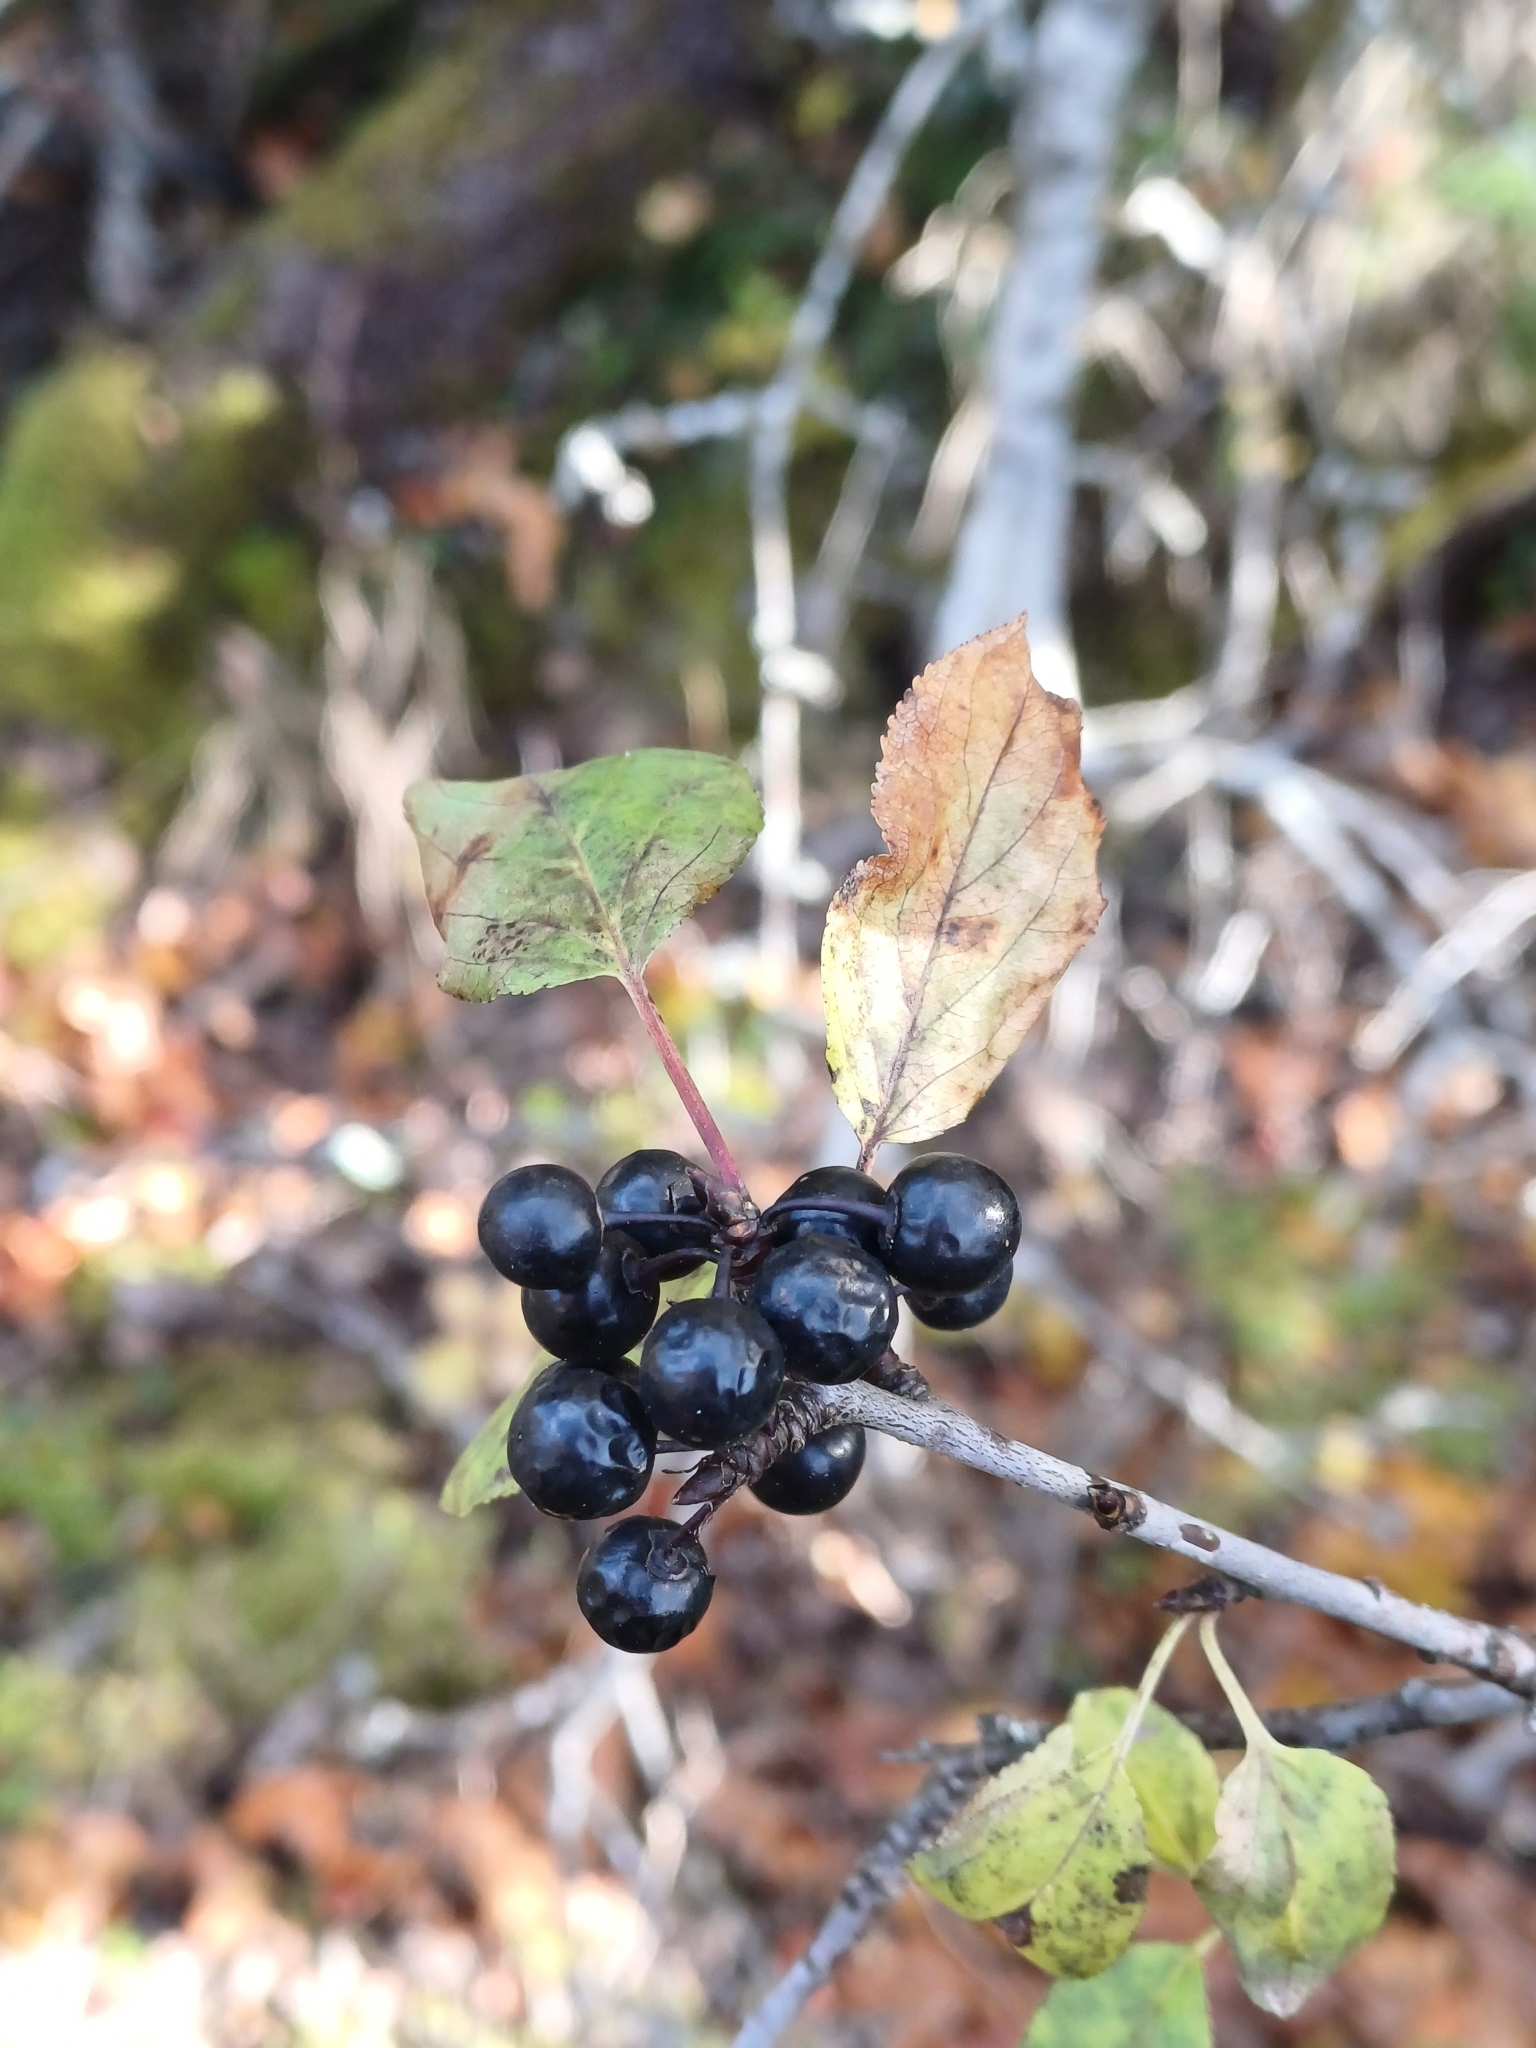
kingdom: Plantae
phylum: Tracheophyta
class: Magnoliopsida
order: Rosales
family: Rhamnaceae
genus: Rhamnus
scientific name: Rhamnus cathartica
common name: Common buckthorn
